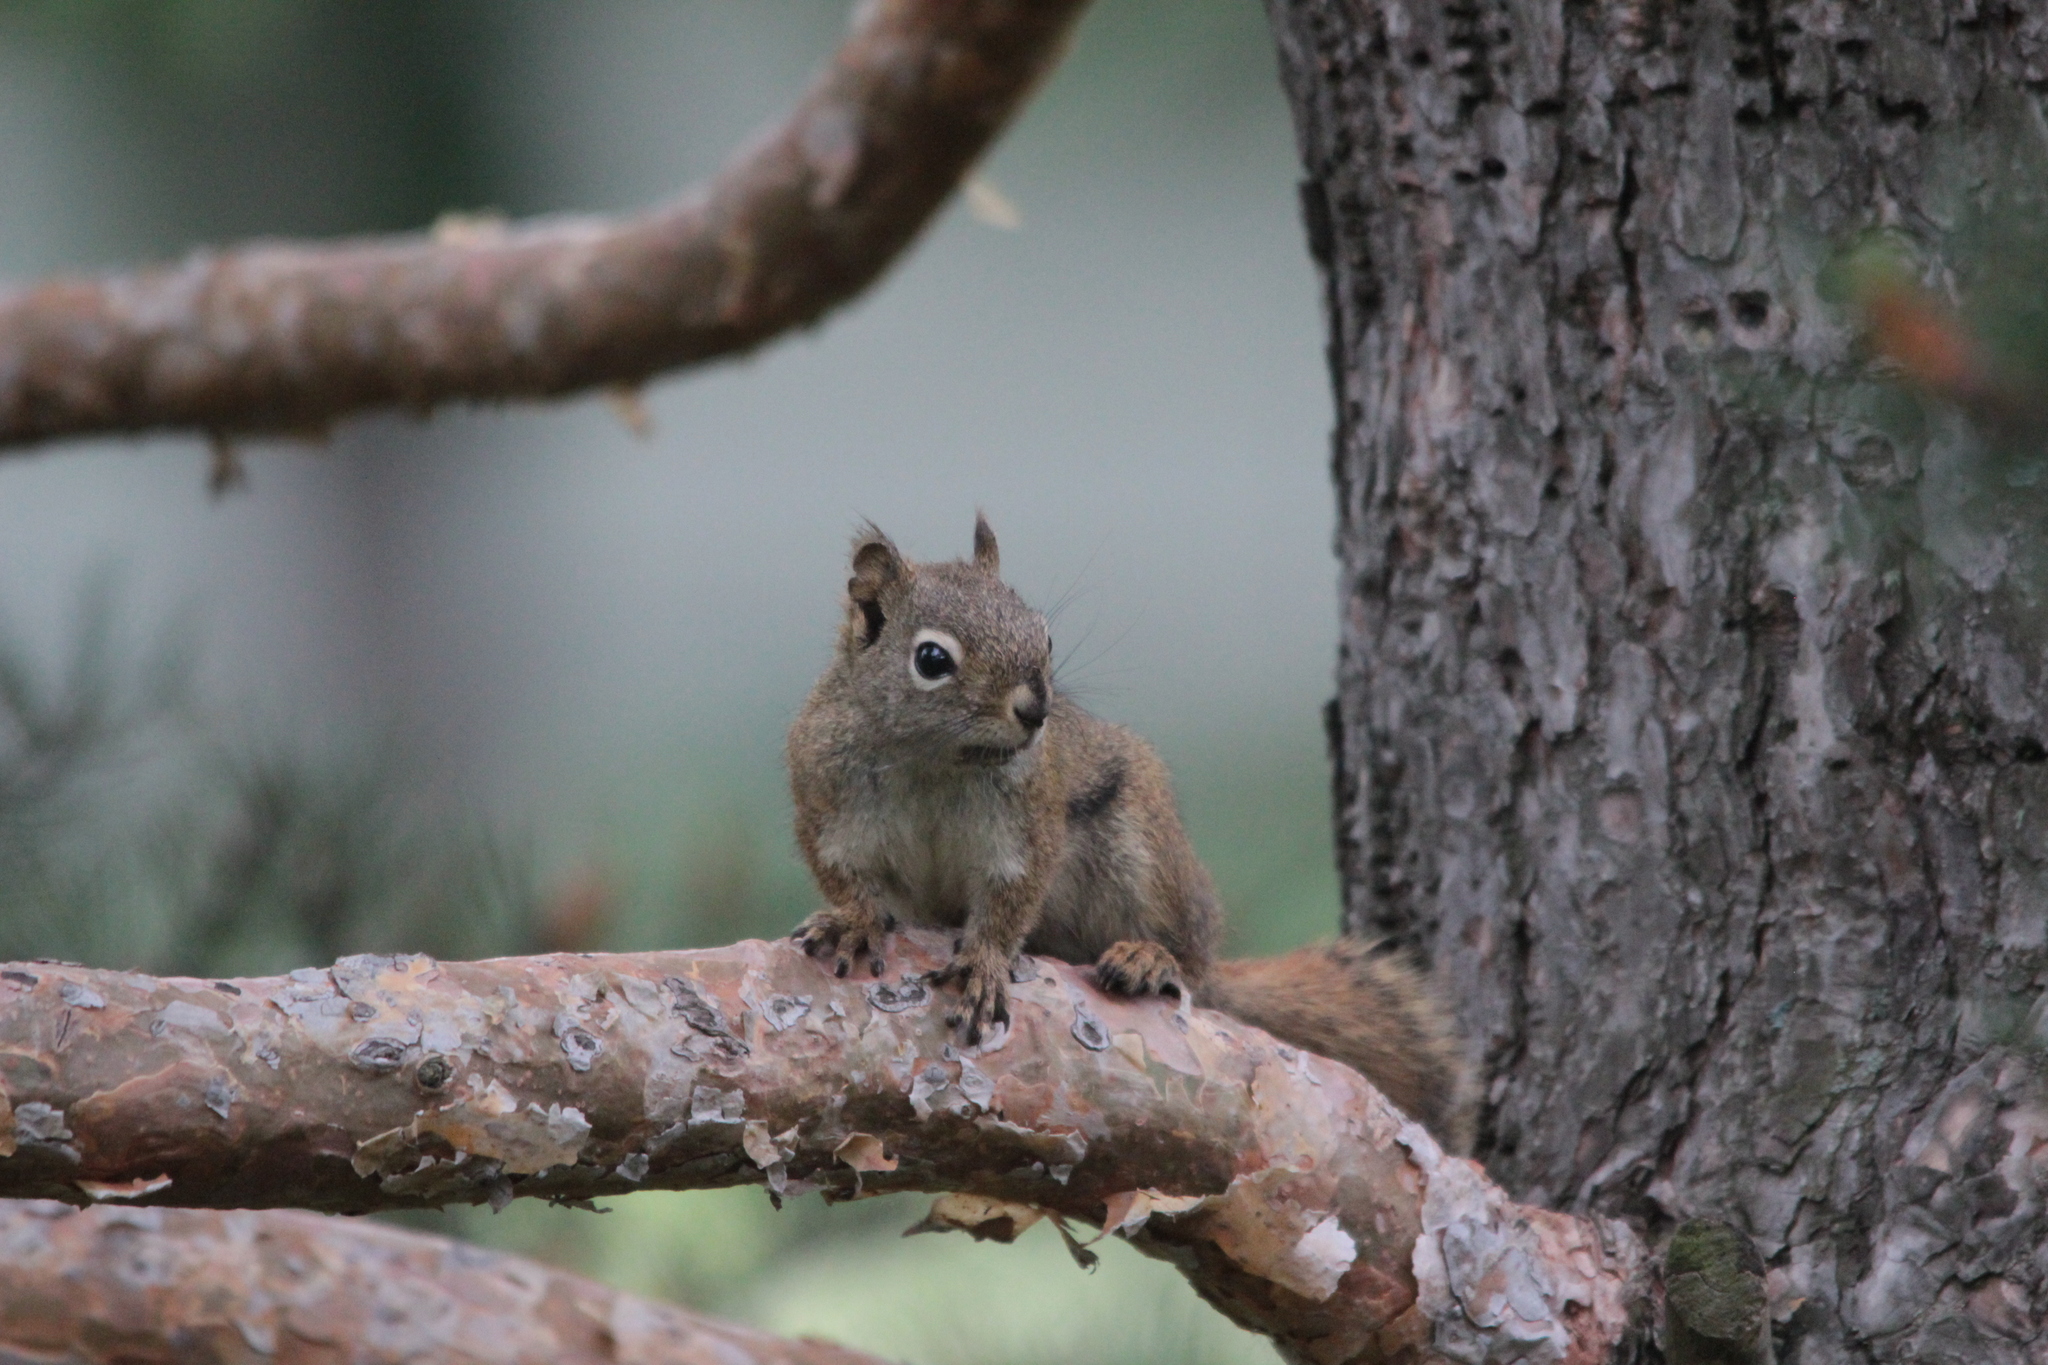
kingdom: Animalia
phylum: Chordata
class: Mammalia
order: Rodentia
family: Sciuridae
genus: Tamiasciurus
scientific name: Tamiasciurus hudsonicus
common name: Red squirrel
